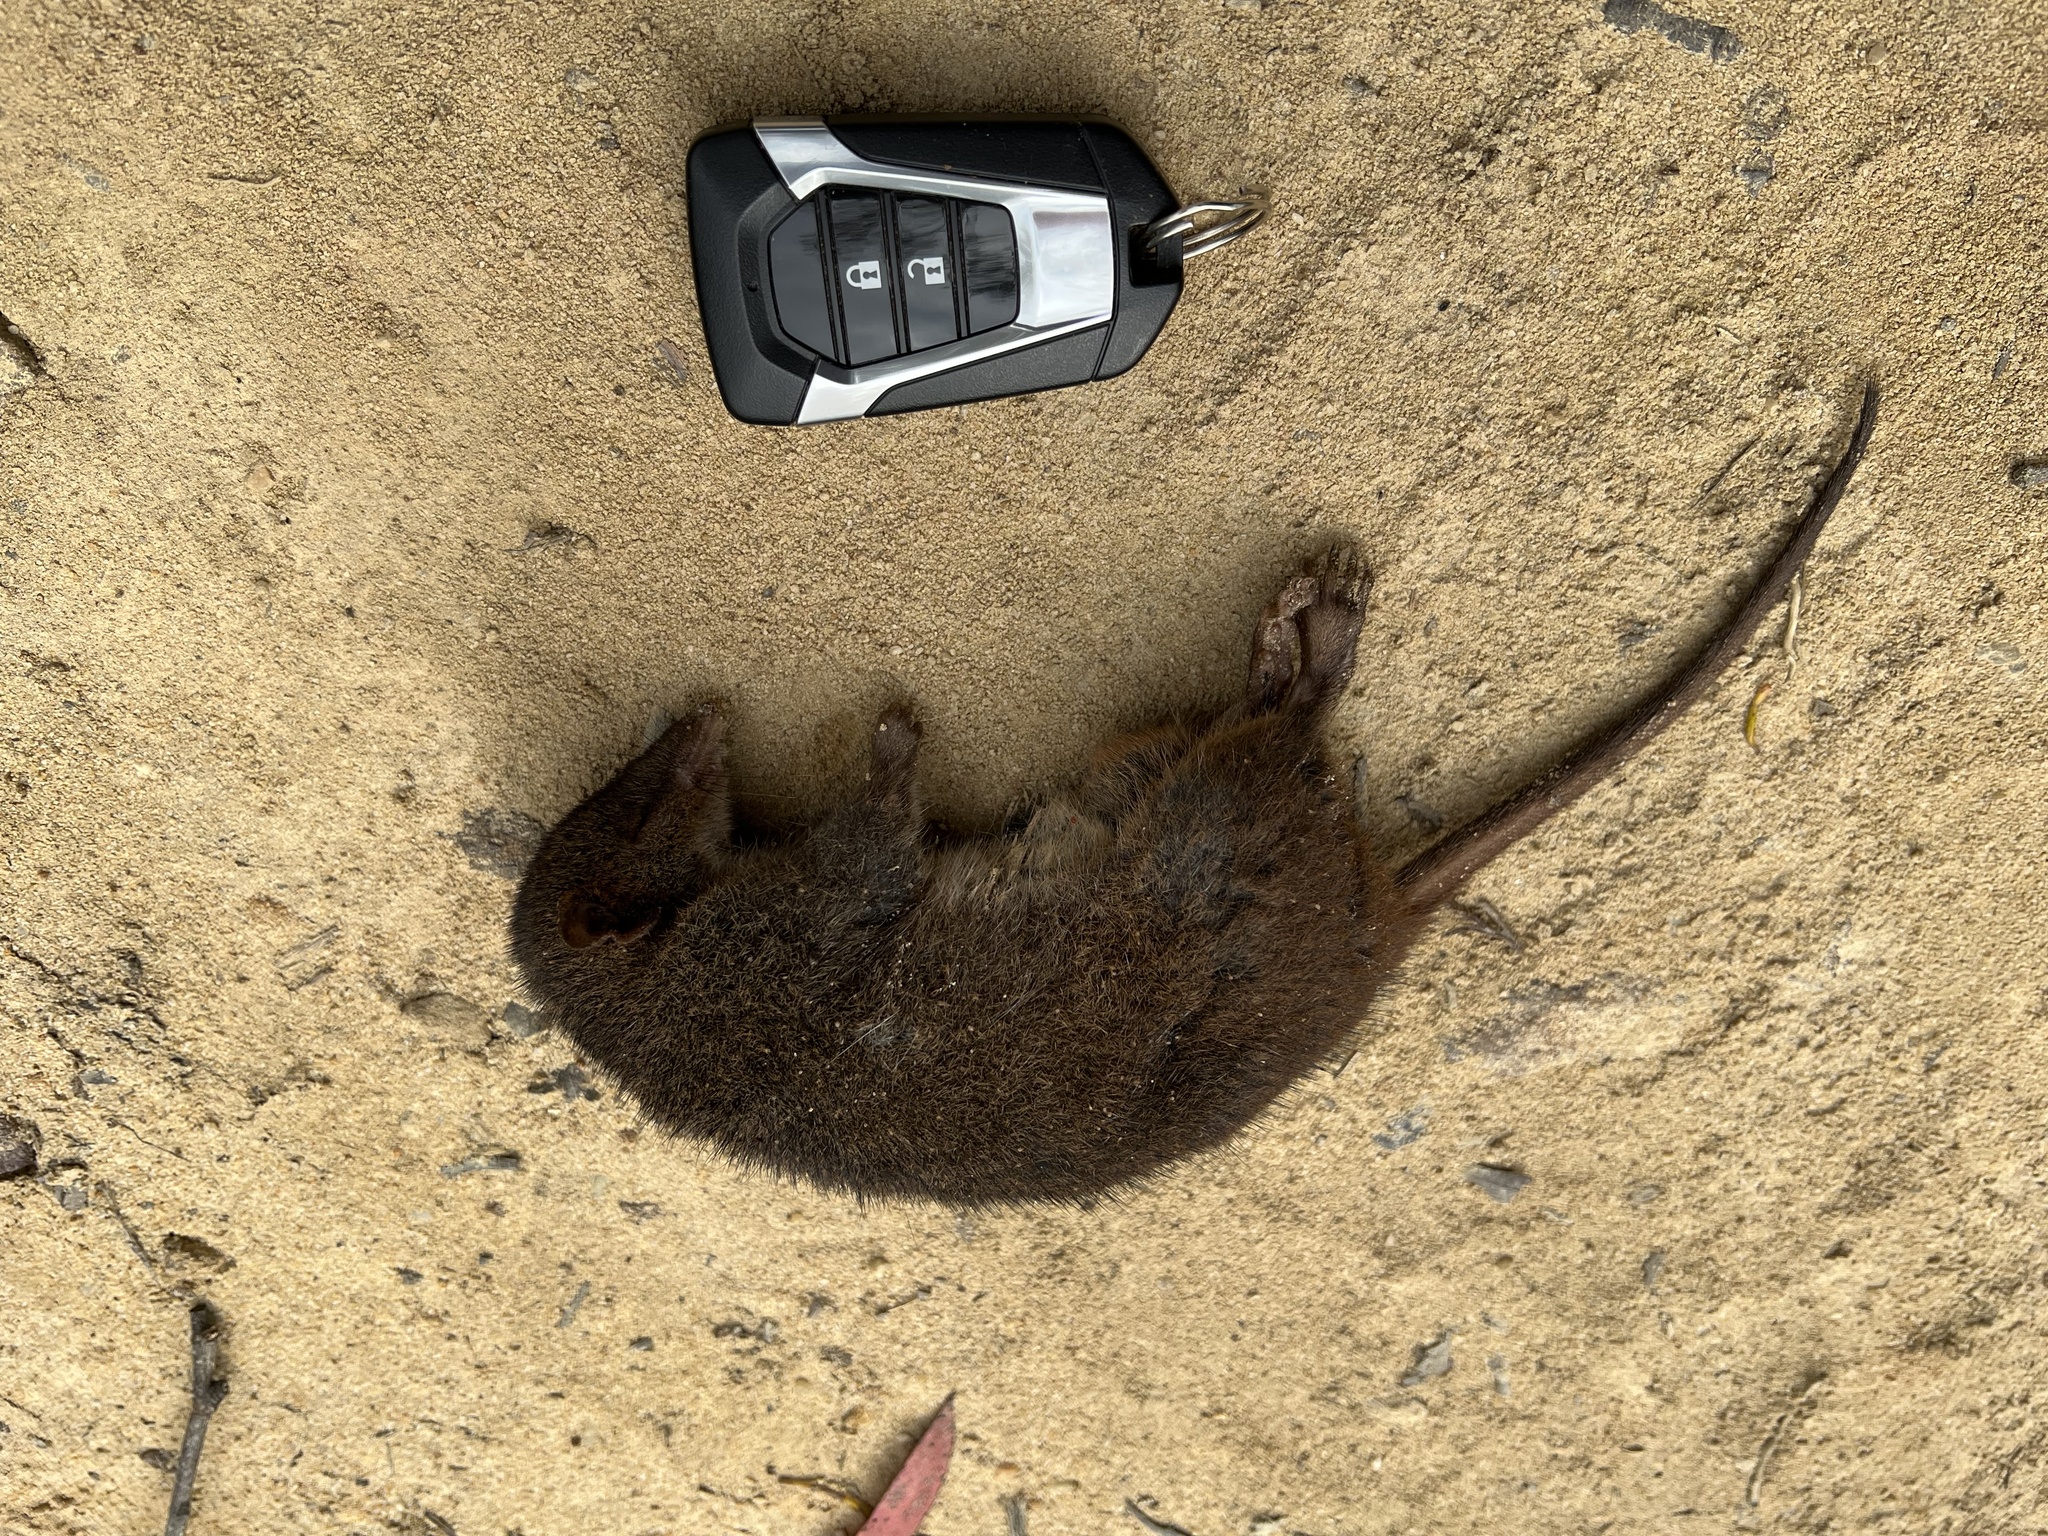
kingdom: Animalia
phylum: Chordata
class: Mammalia
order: Dasyuromorphia
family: Dasyuridae
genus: Antechinus
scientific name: Antechinus
